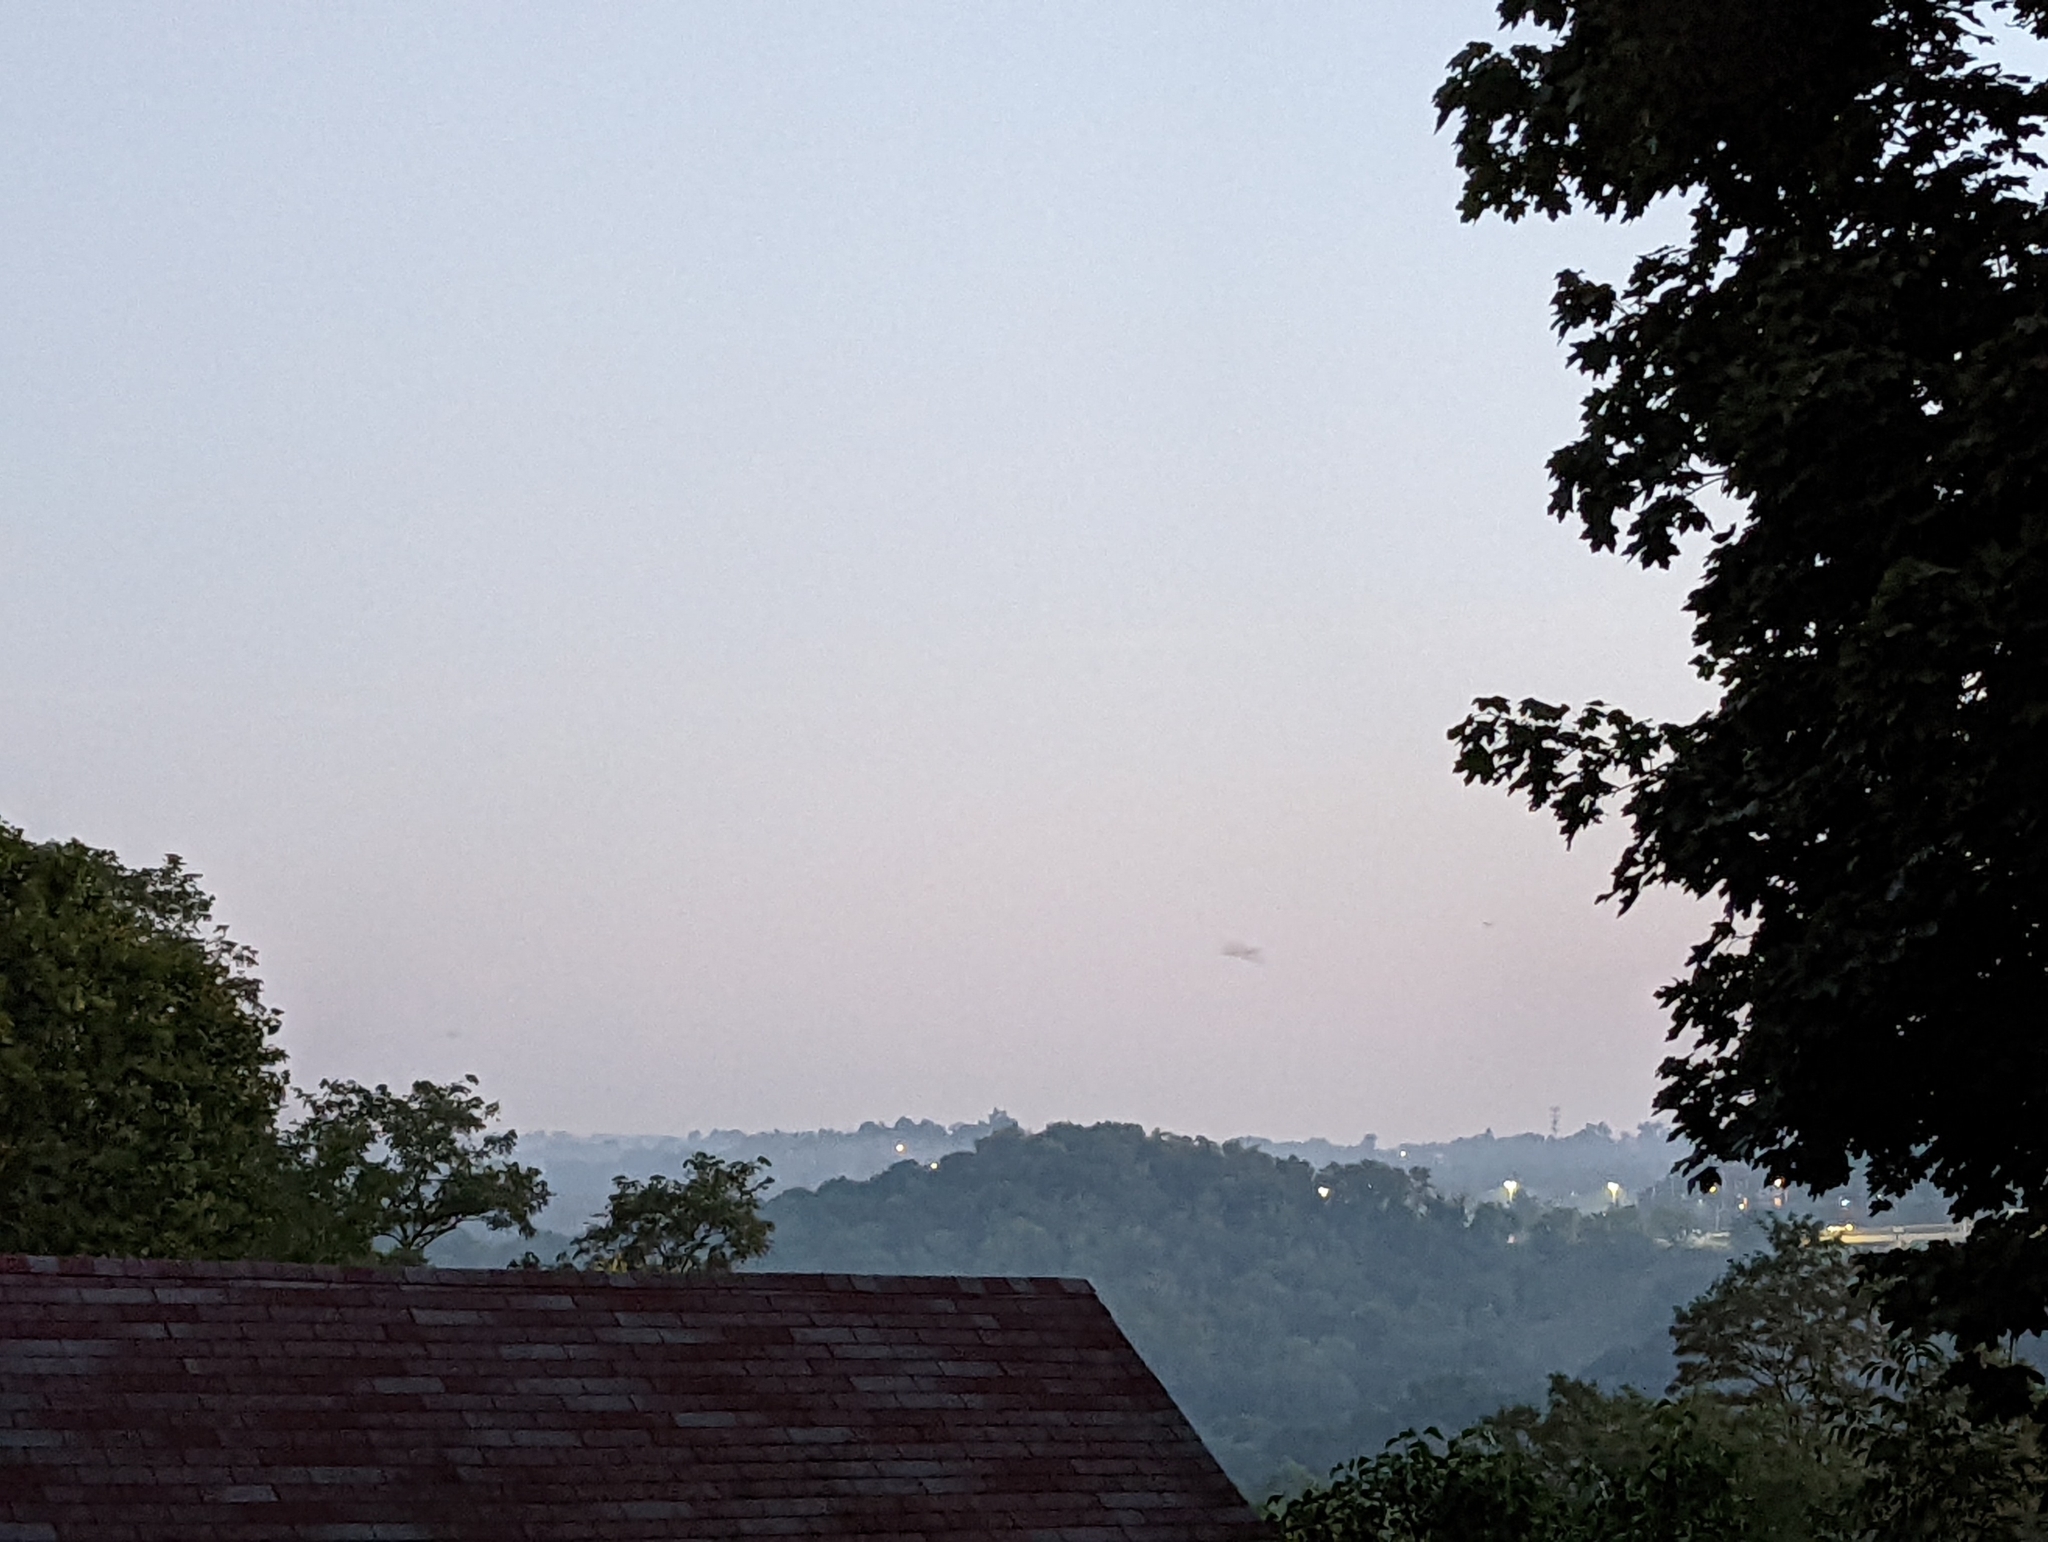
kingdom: Animalia
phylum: Chordata
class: Aves
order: Passeriformes
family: Corvidae
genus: Cyanocitta
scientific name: Cyanocitta cristata
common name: Blue jay
